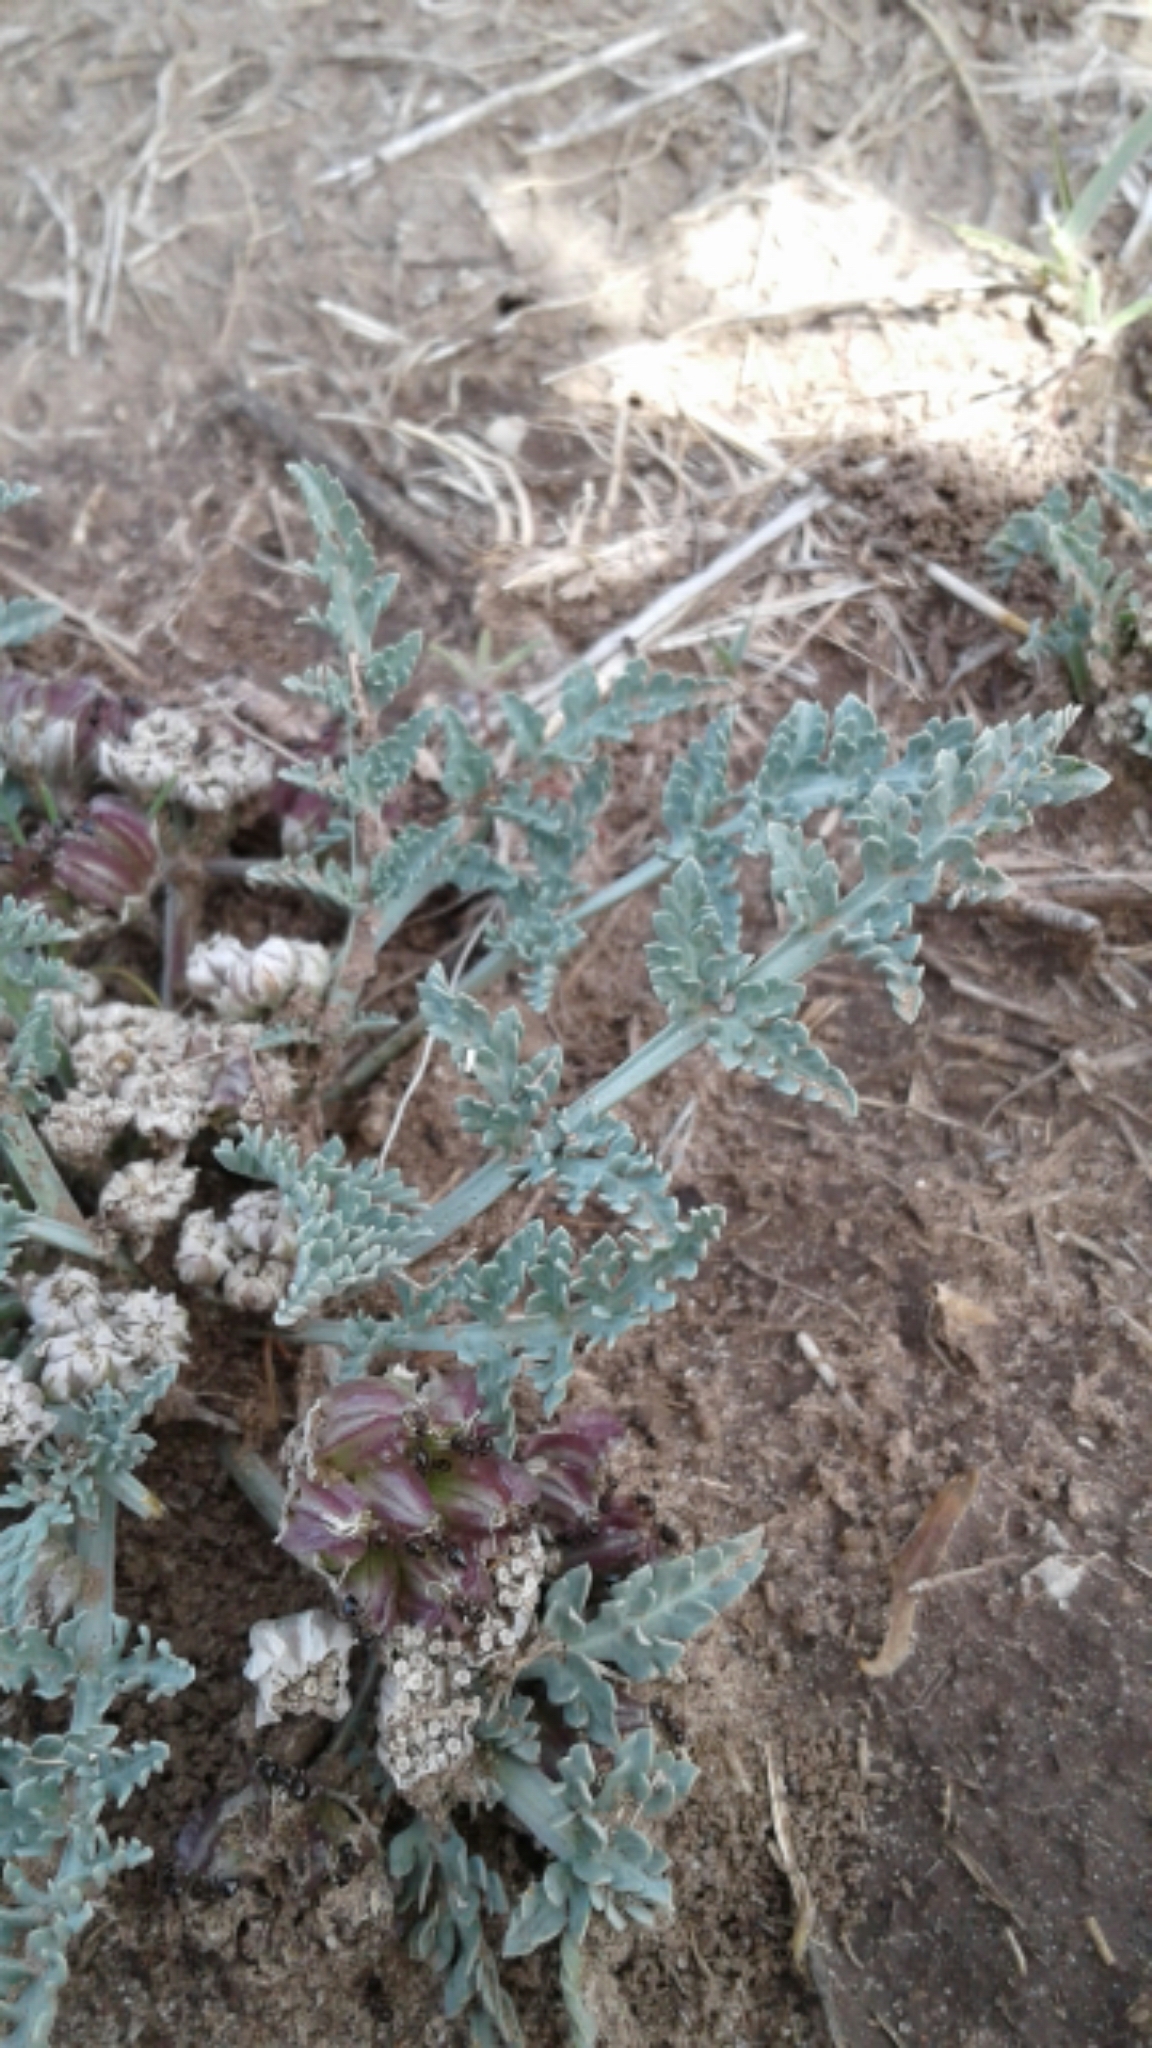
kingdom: Plantae
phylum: Tracheophyta
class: Magnoliopsida
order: Apiales
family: Apiaceae
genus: Vesper
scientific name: Vesper montanus
